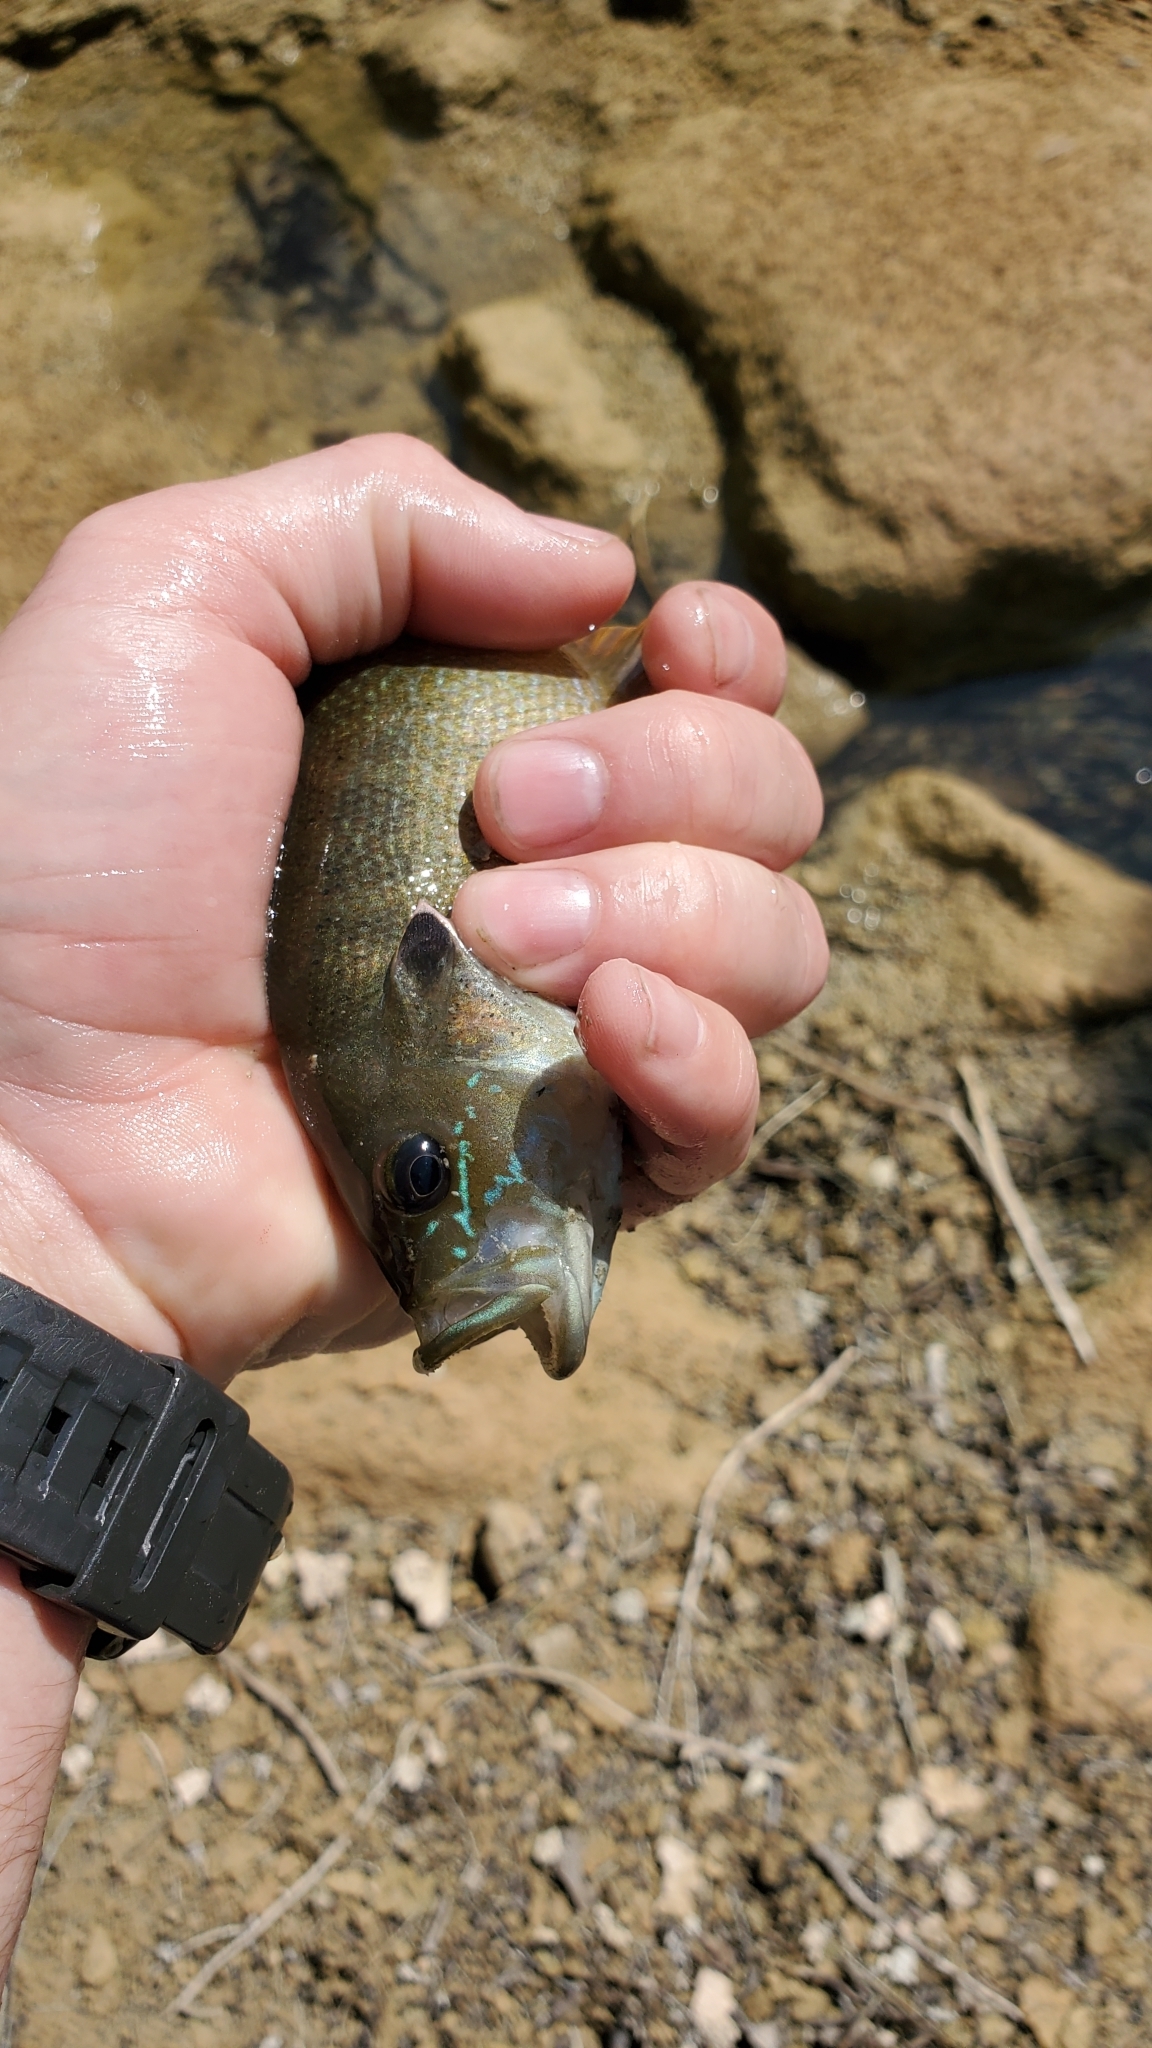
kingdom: Animalia
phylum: Chordata
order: Perciformes
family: Centrarchidae
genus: Lepomis
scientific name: Lepomis cyanellus
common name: Green sunfish
